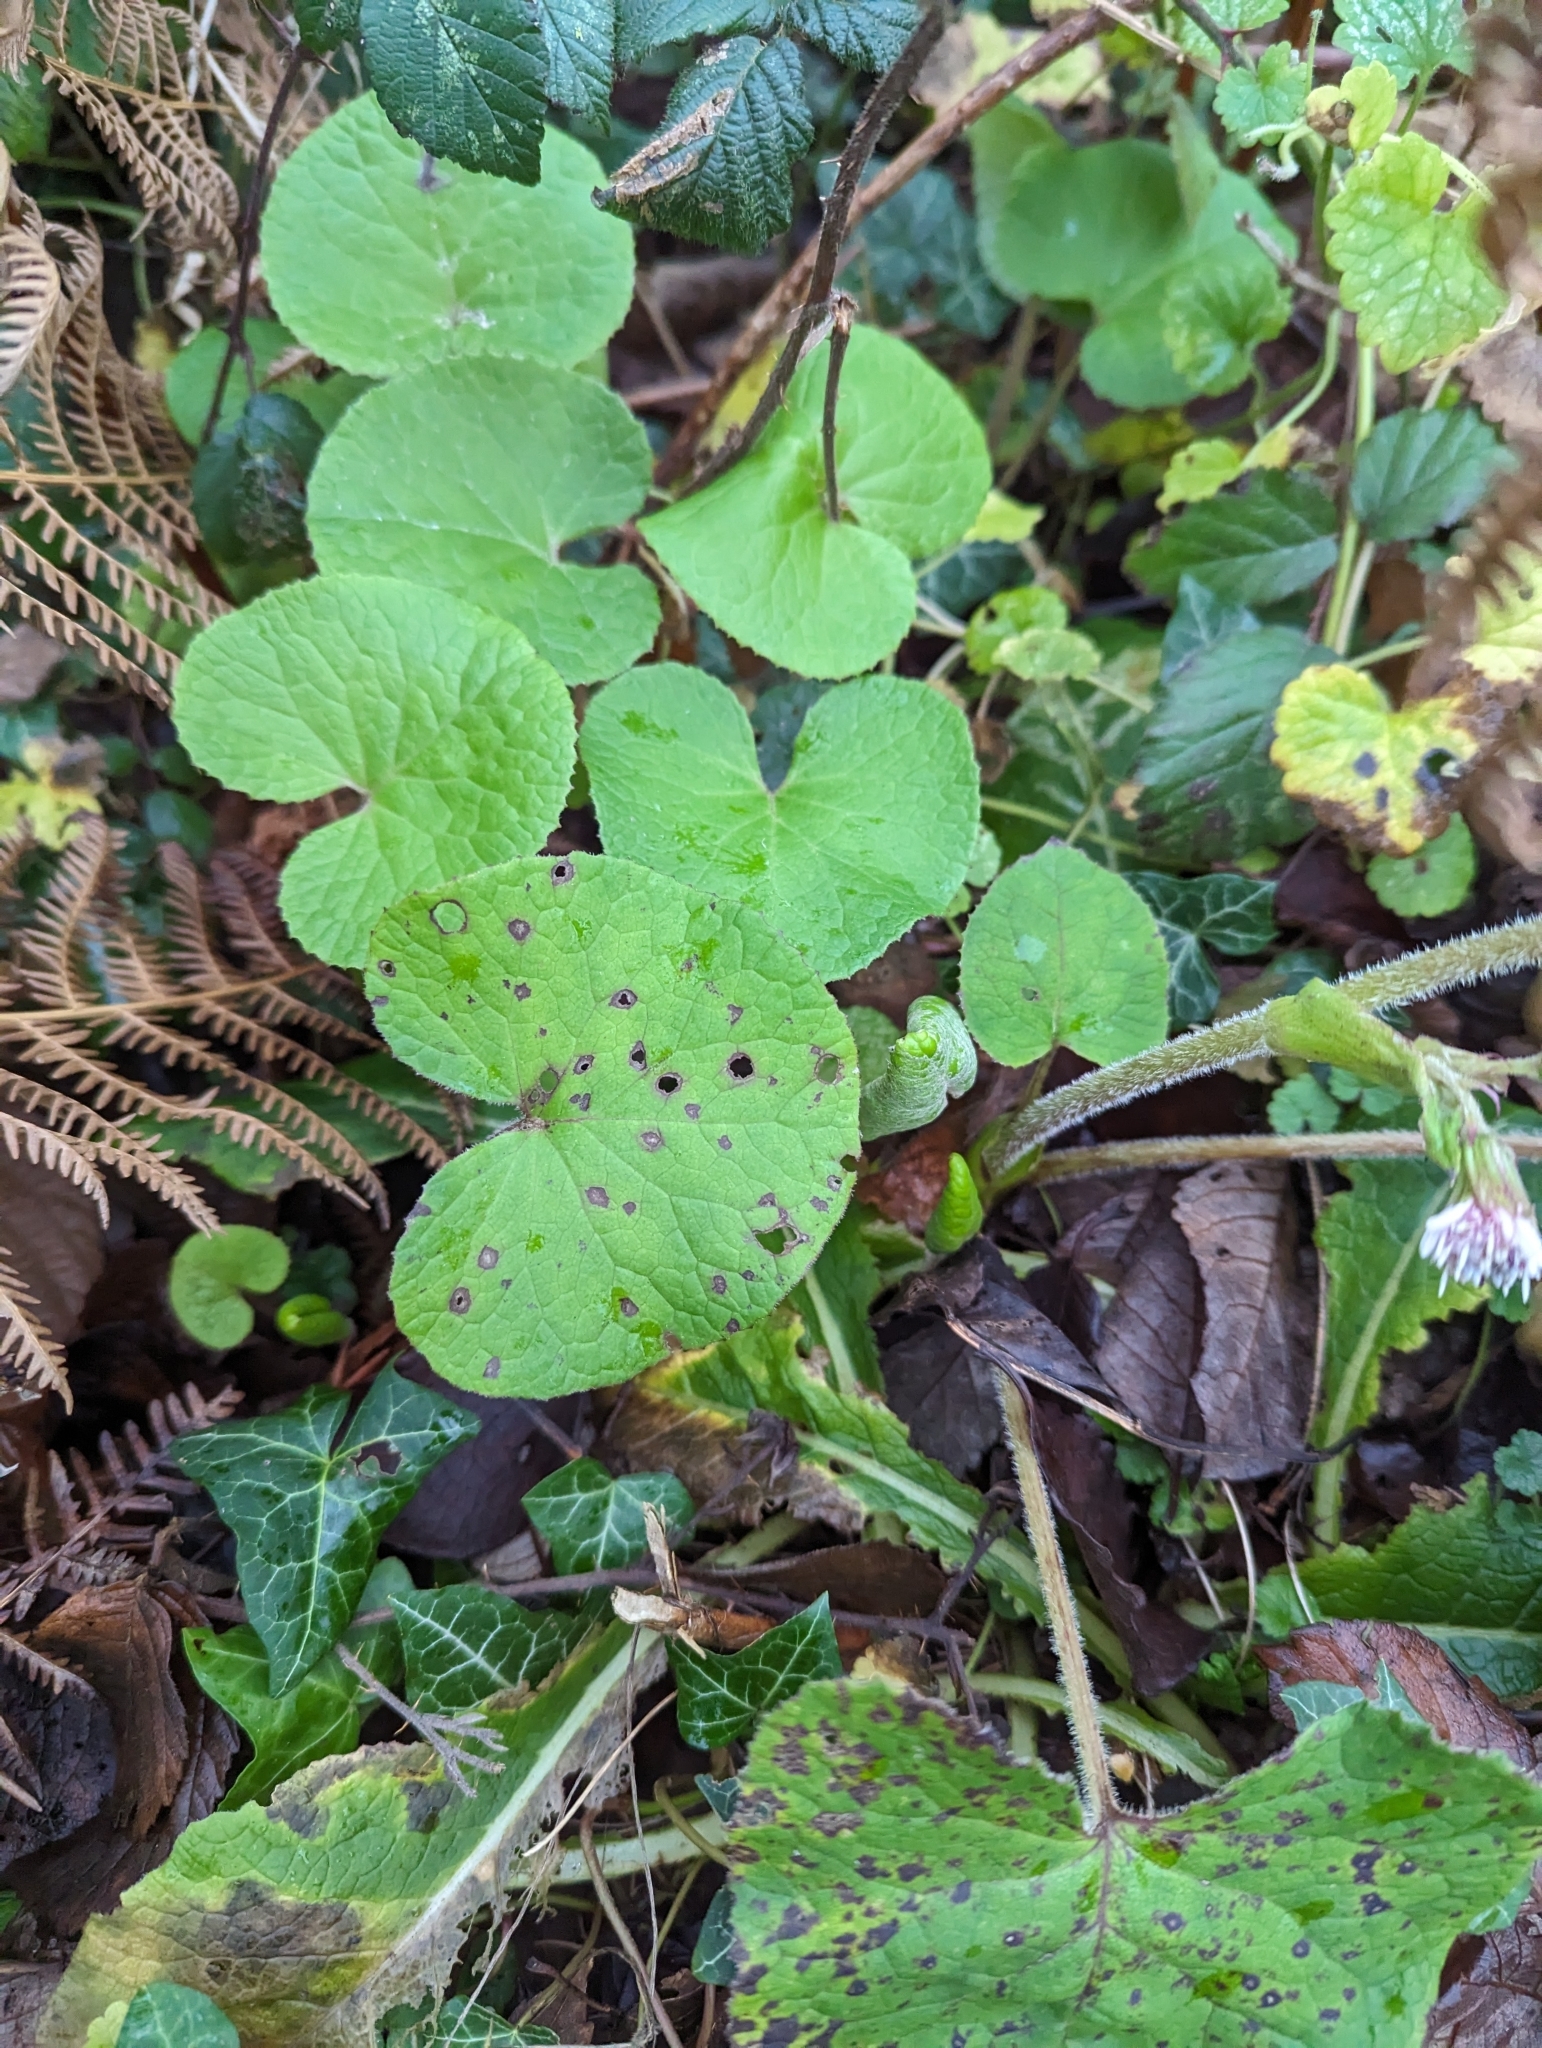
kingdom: Plantae
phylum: Tracheophyta
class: Magnoliopsida
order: Asterales
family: Asteraceae
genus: Petasites
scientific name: Petasites pyrenaicus
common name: Winter heliotrope
